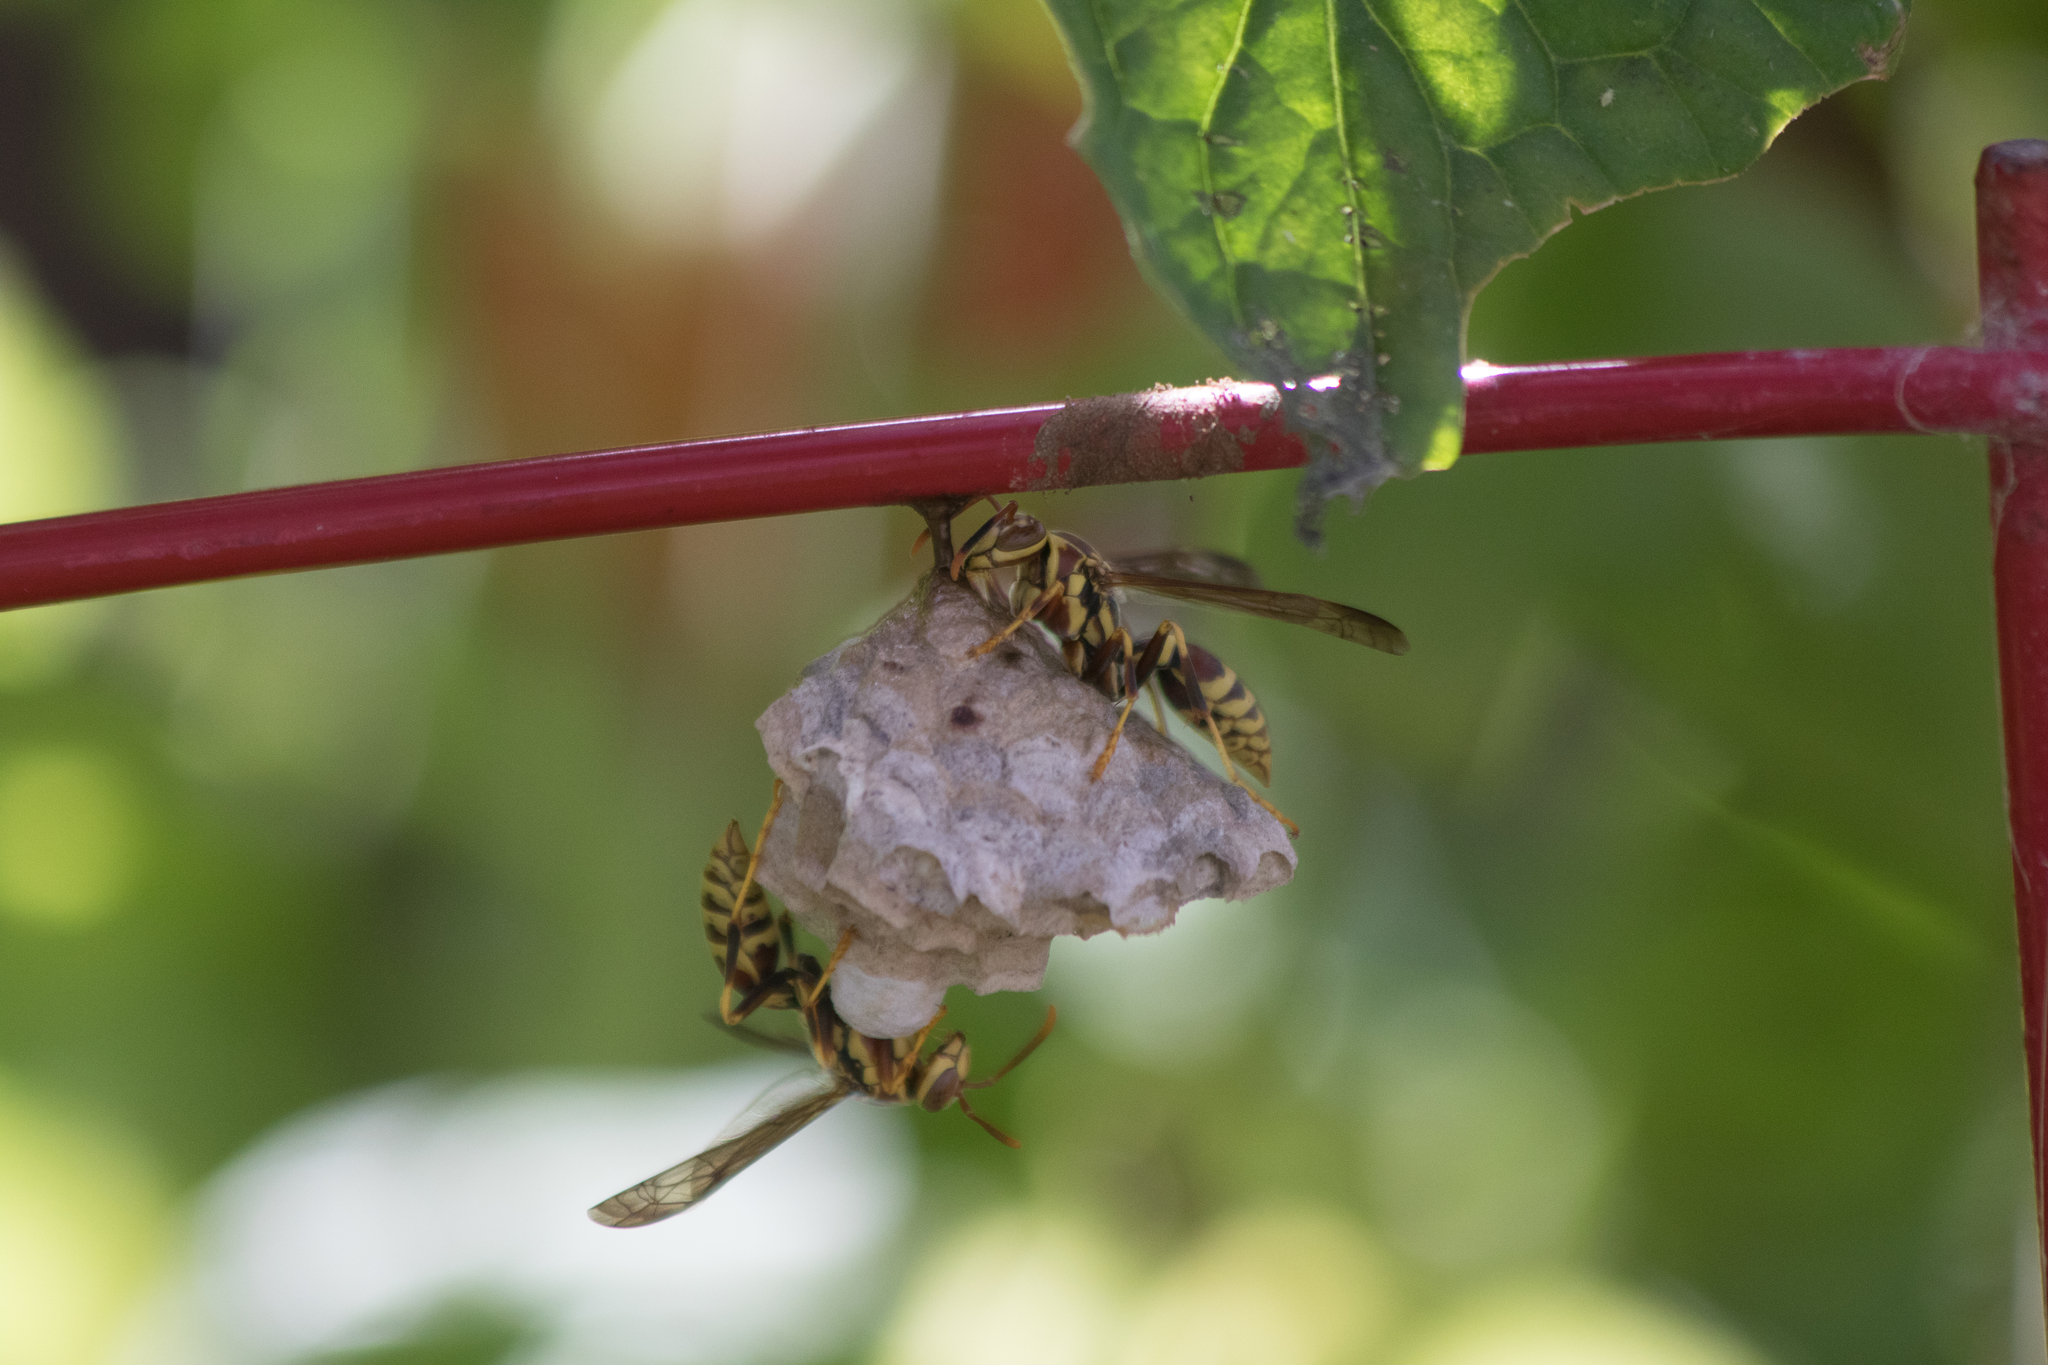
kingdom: Animalia
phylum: Arthropoda
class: Insecta
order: Hymenoptera
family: Eumenidae
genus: Polistes
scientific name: Polistes exclamans
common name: Paper wasp
